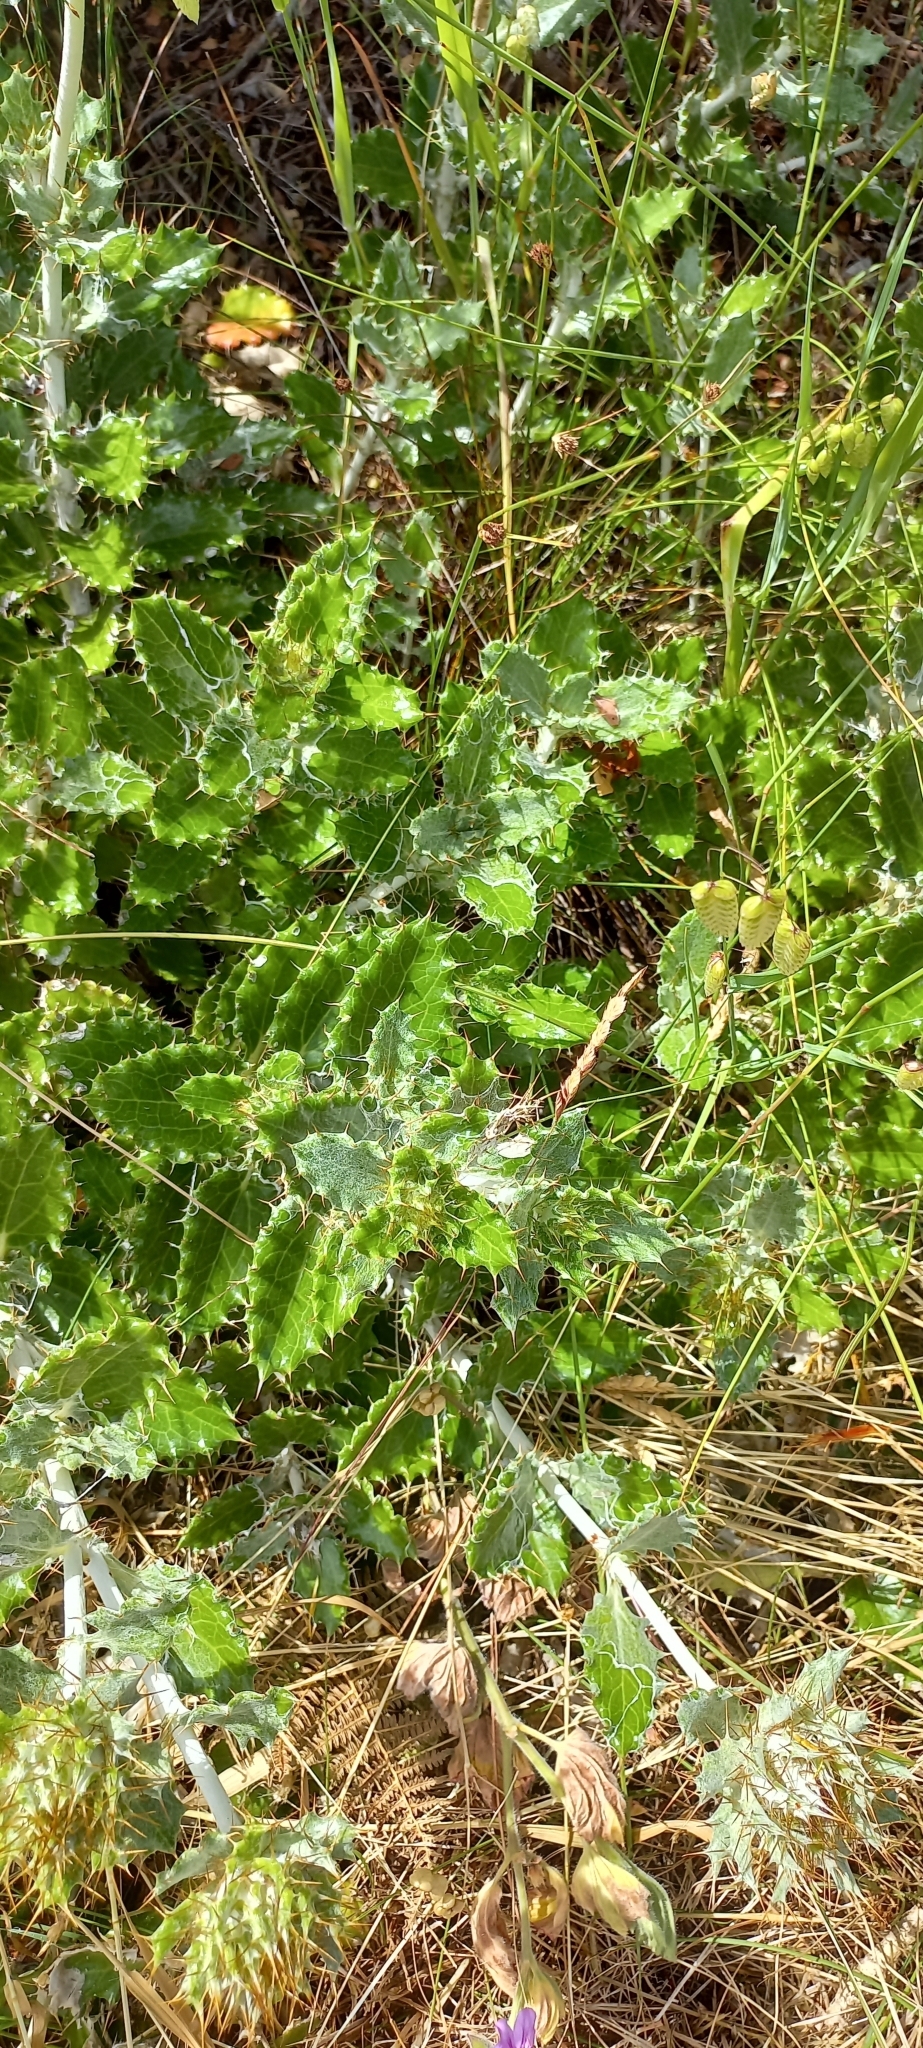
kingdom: Plantae
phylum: Tracheophyta
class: Magnoliopsida
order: Asterales
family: Asteraceae
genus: Berkheya
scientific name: Berkheya barbata
